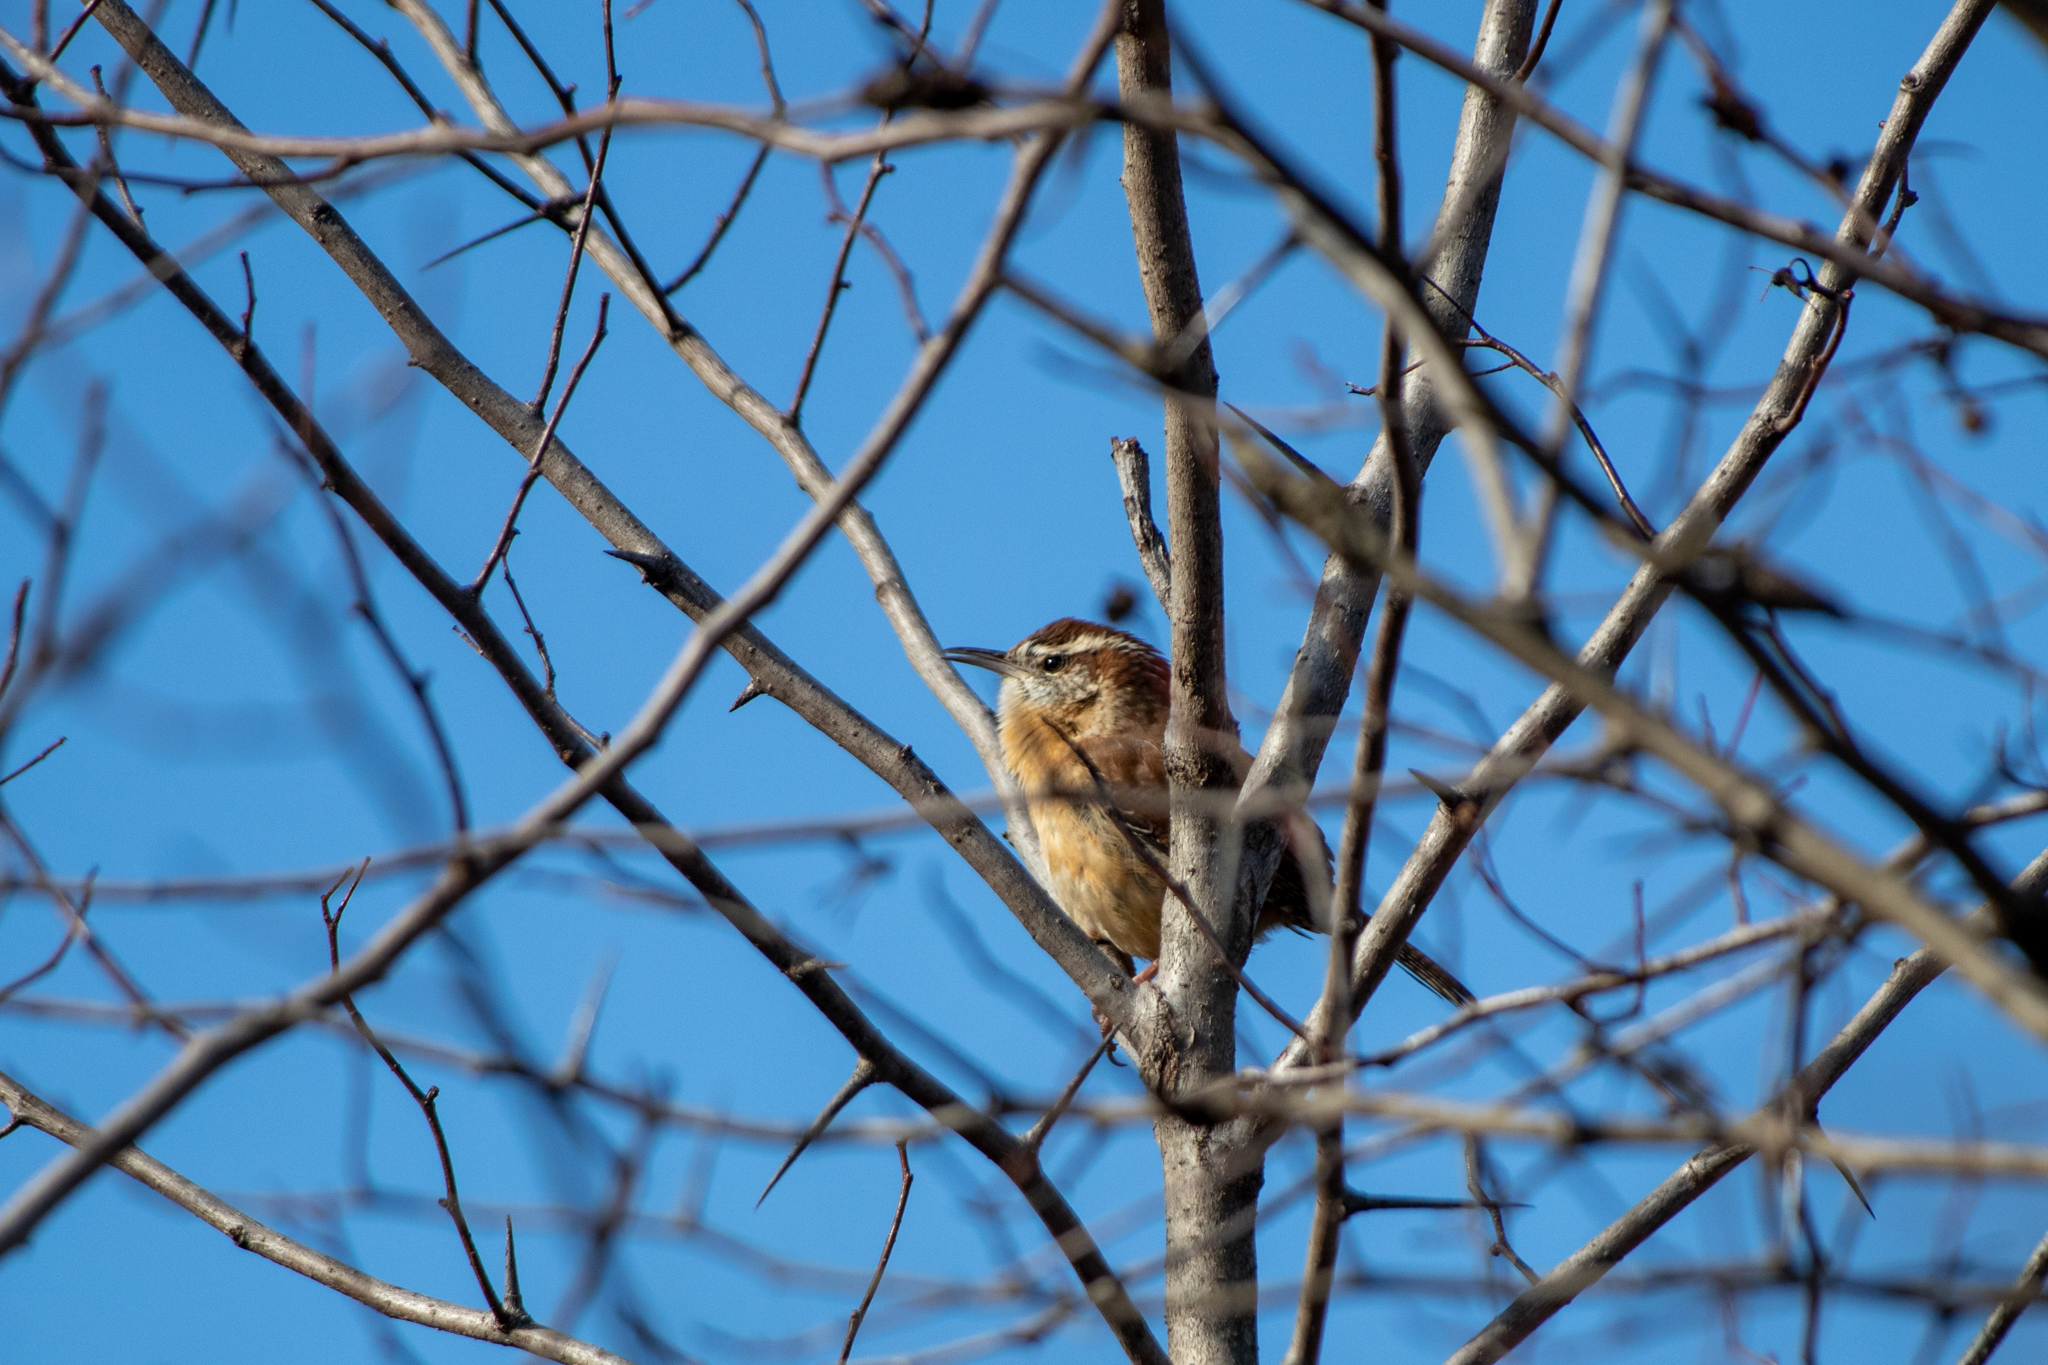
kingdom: Animalia
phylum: Chordata
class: Aves
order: Passeriformes
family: Troglodytidae
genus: Thryothorus
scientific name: Thryothorus ludovicianus
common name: Carolina wren
